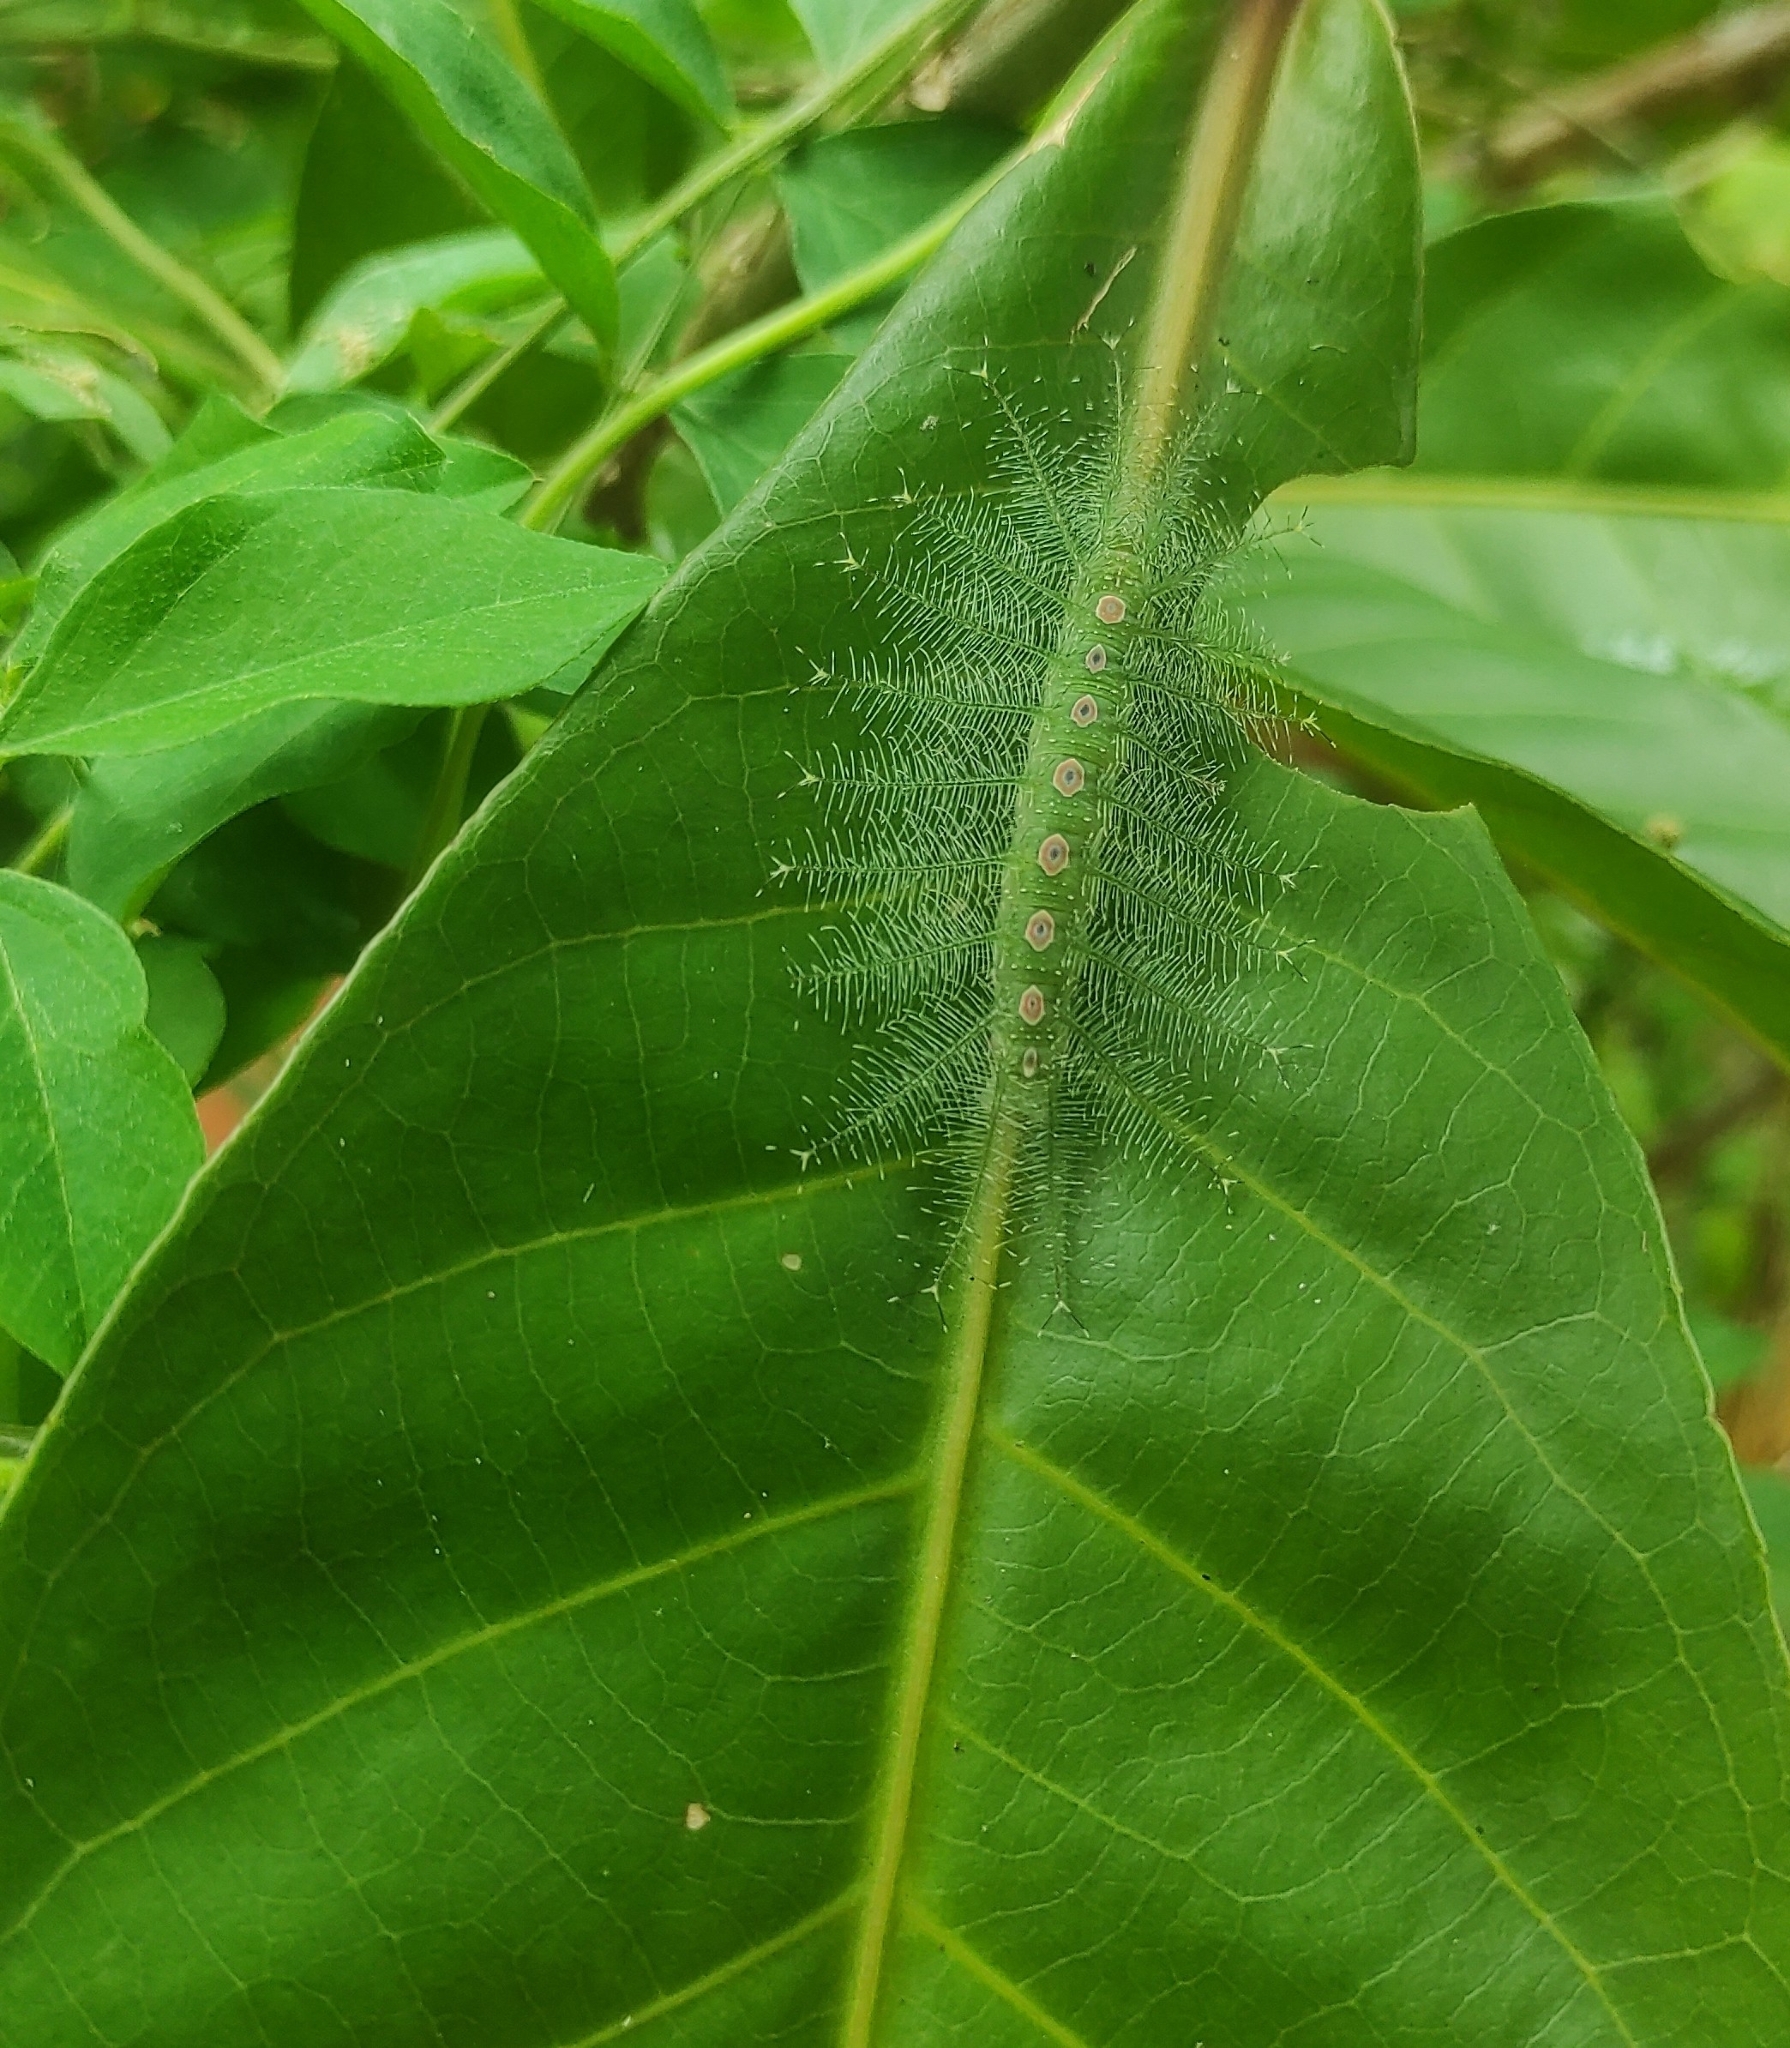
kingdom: Animalia
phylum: Arthropoda
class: Insecta
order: Lepidoptera
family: Nymphalidae
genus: Tanaecia
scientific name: Tanaecia lepidea
